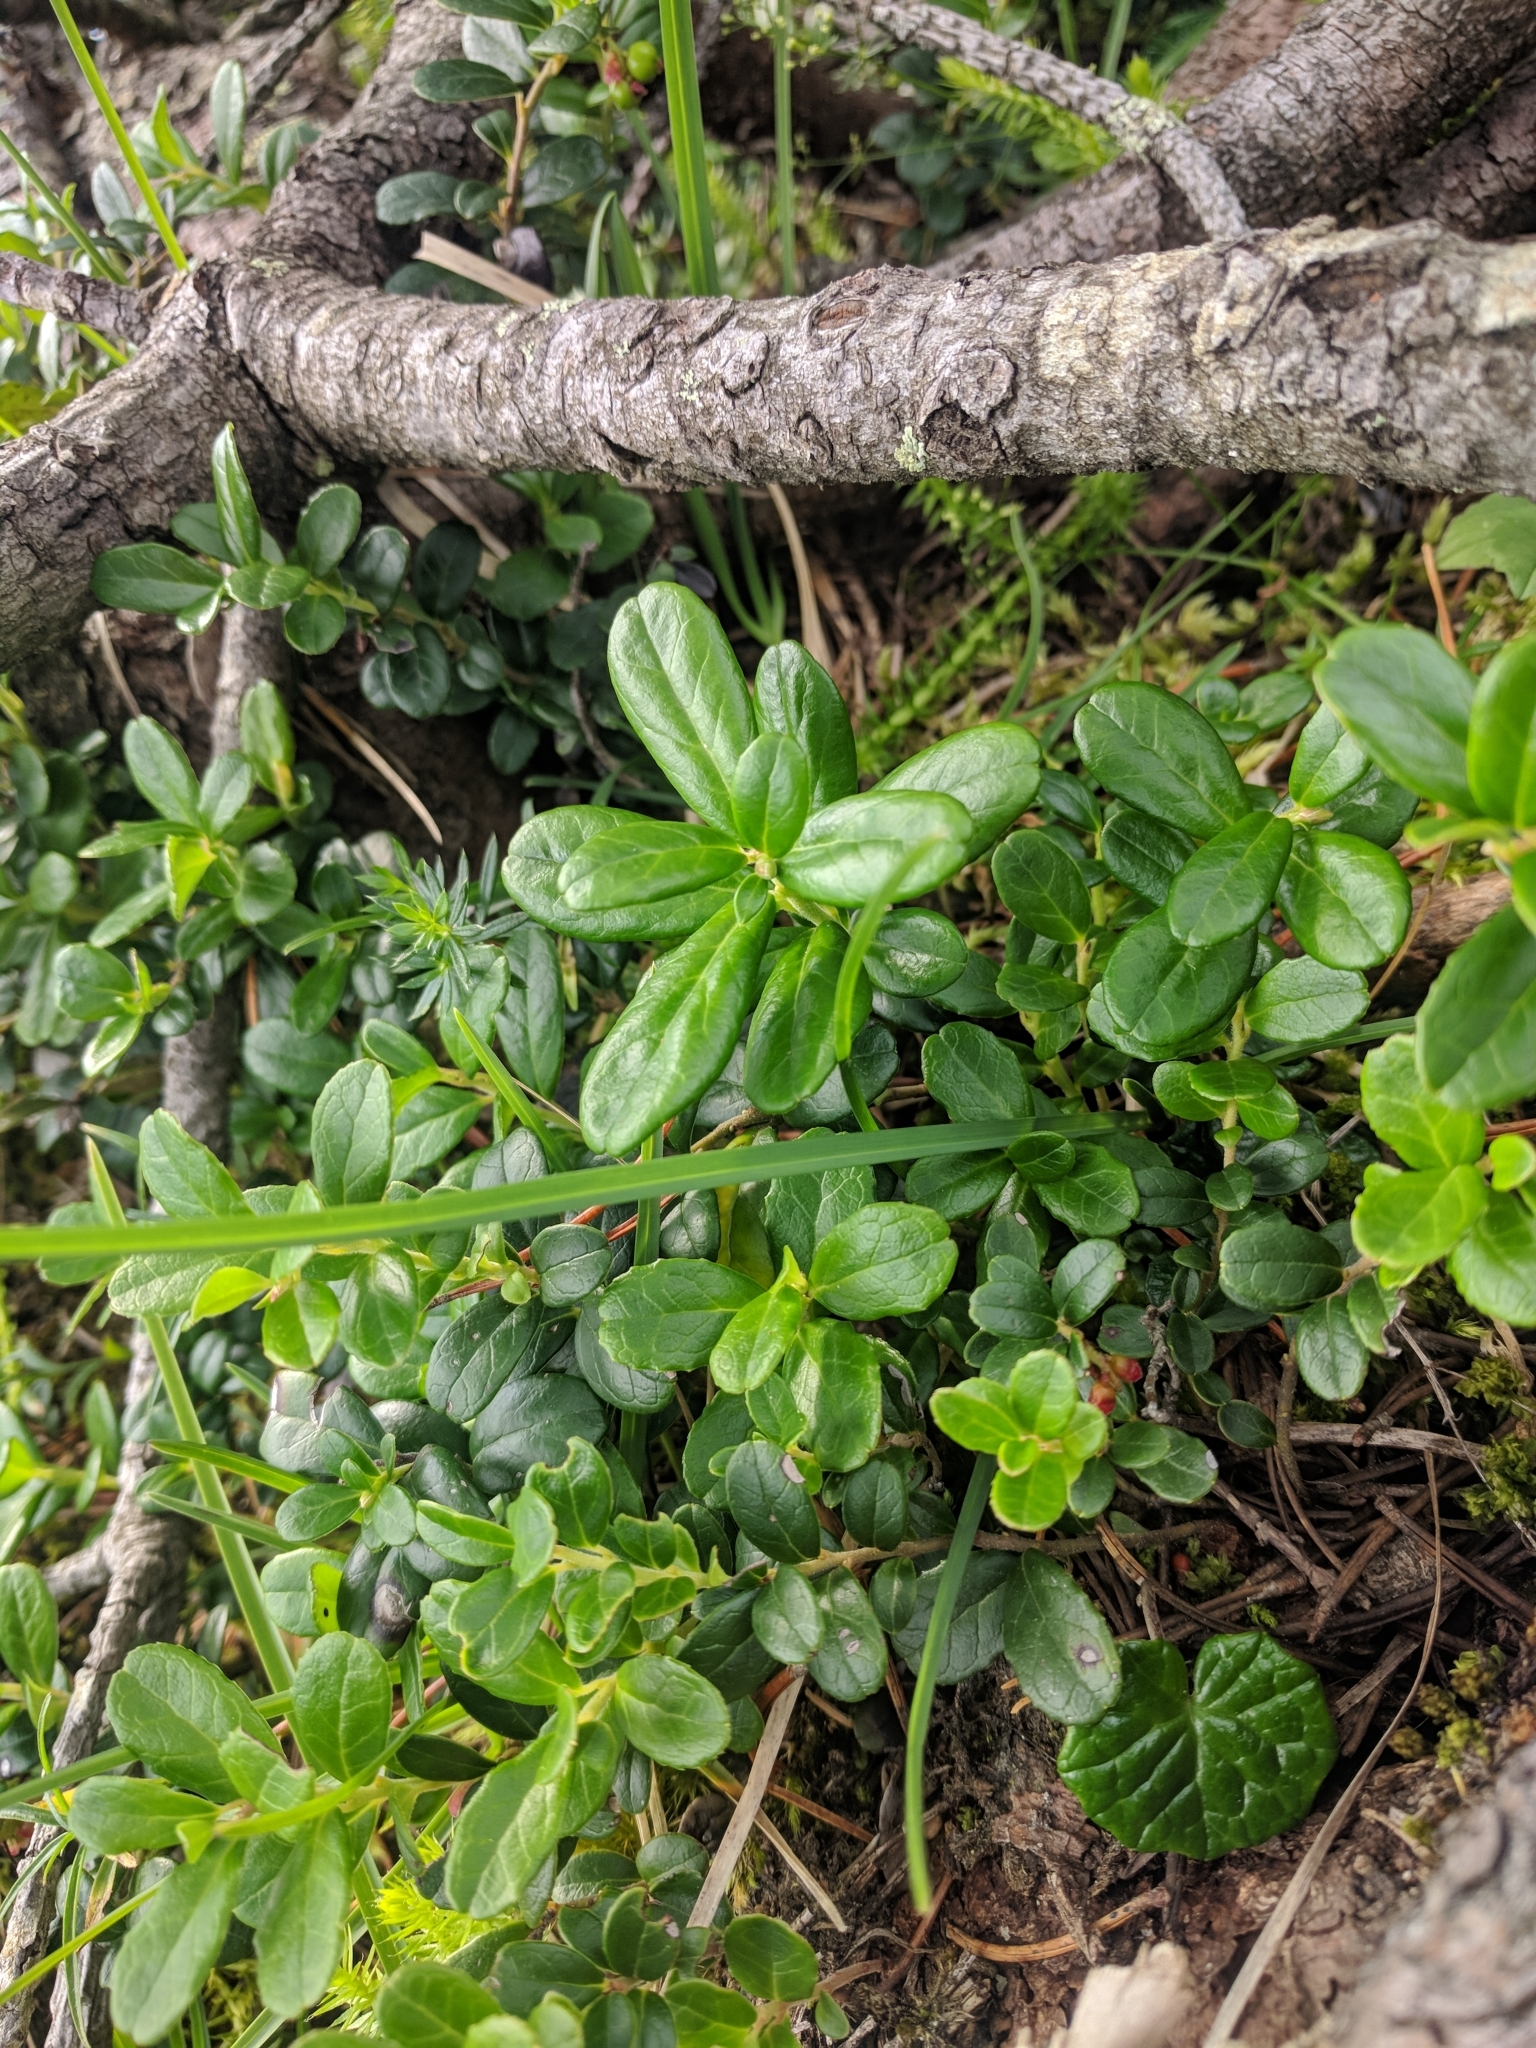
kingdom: Plantae
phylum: Tracheophyta
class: Magnoliopsida
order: Ericales
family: Ericaceae
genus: Vaccinium
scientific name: Vaccinium vitis-idaea
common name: Cowberry
